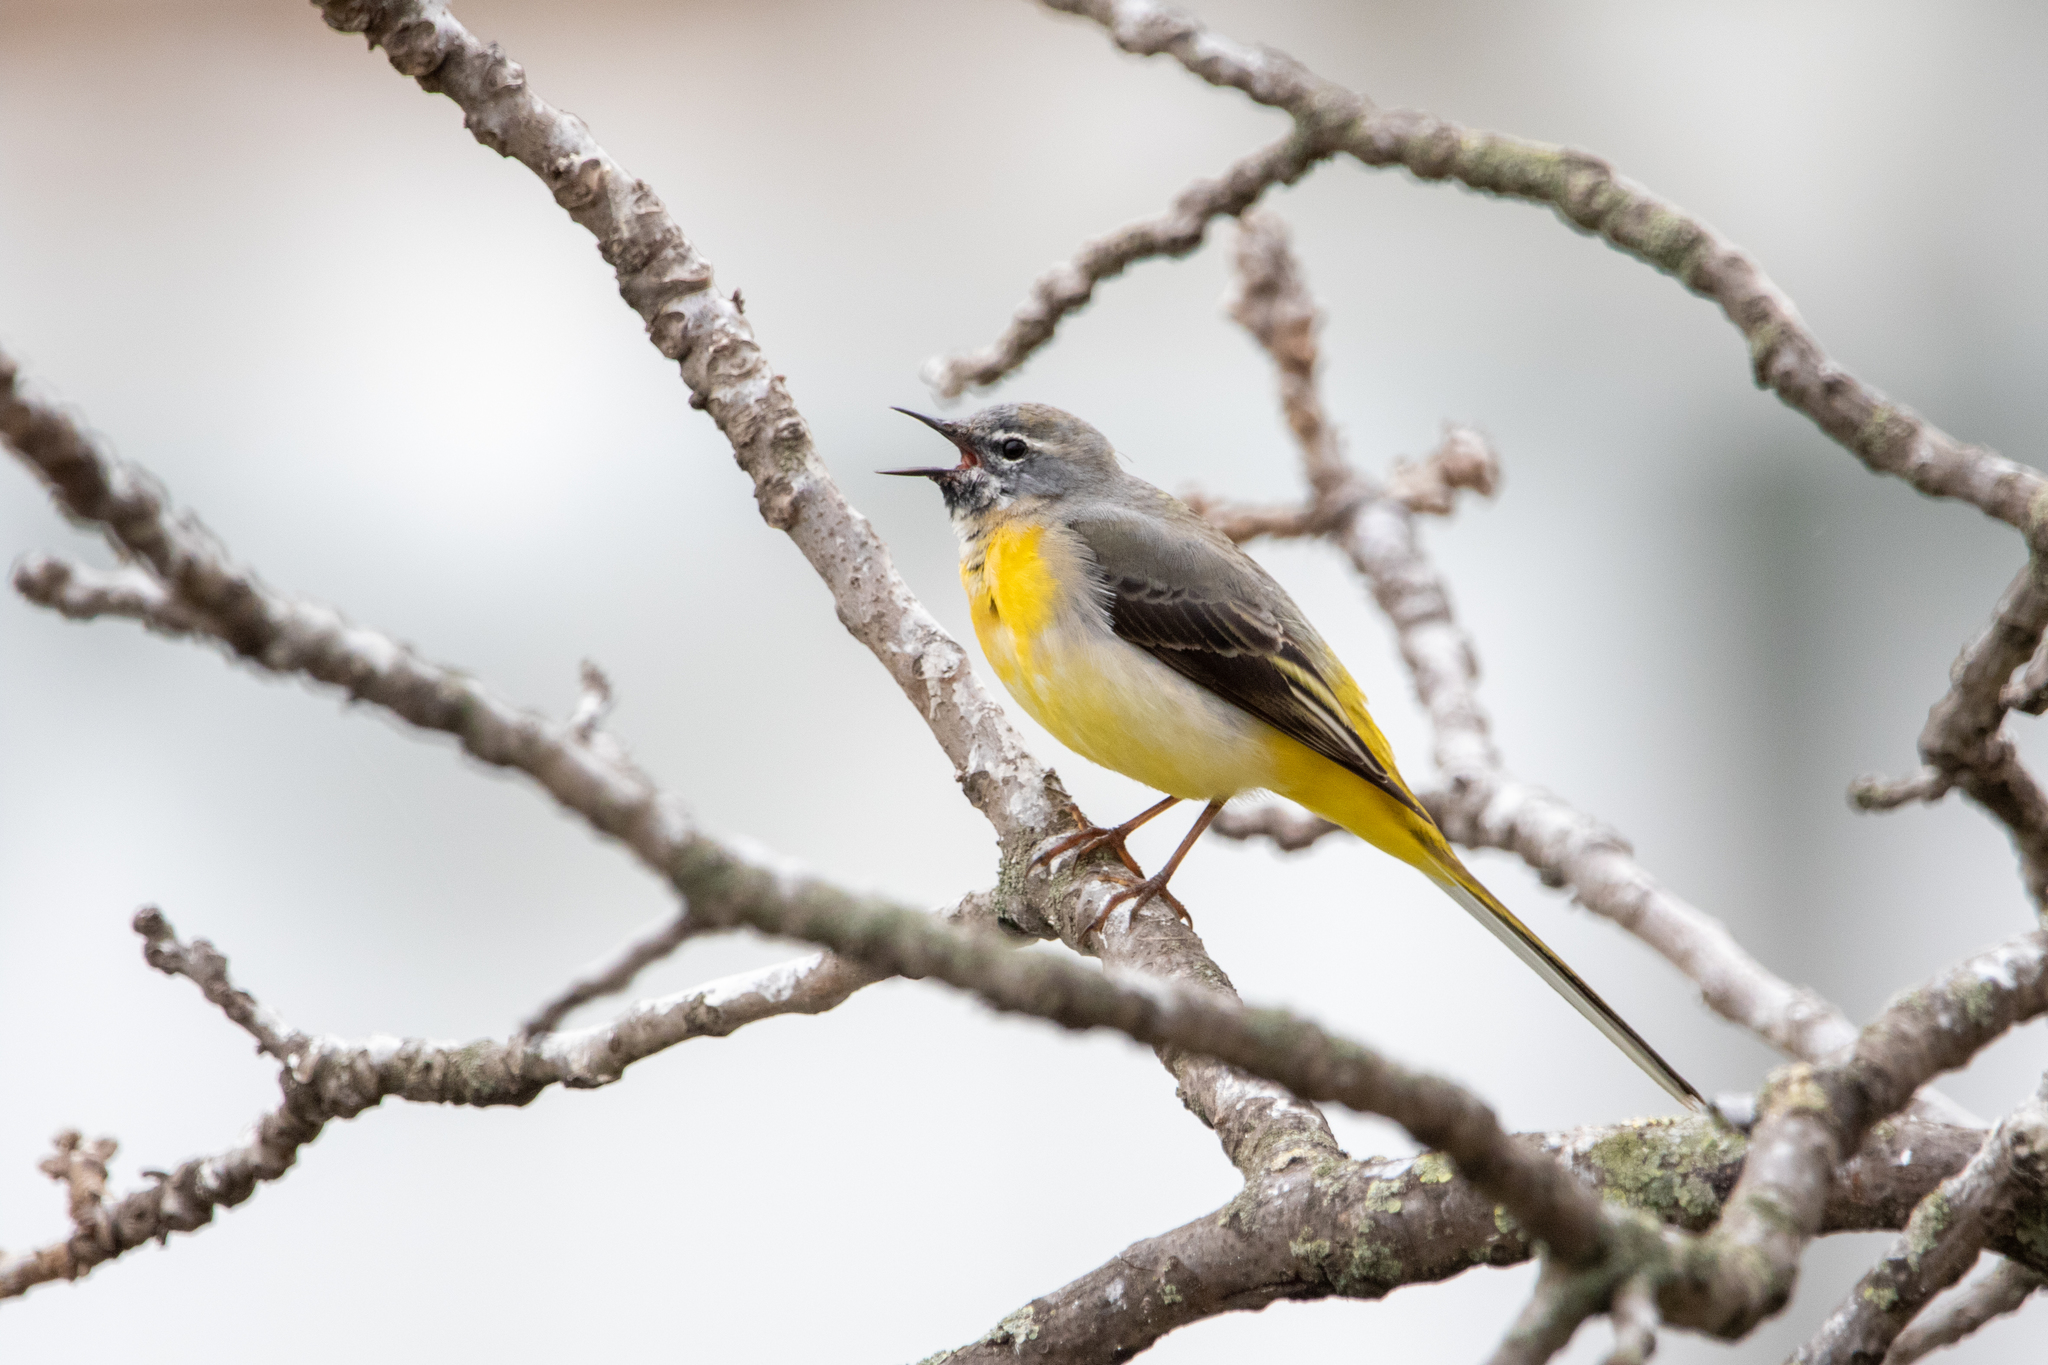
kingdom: Animalia
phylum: Chordata
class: Aves
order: Passeriformes
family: Motacillidae
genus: Motacilla
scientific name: Motacilla cinerea
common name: Grey wagtail
